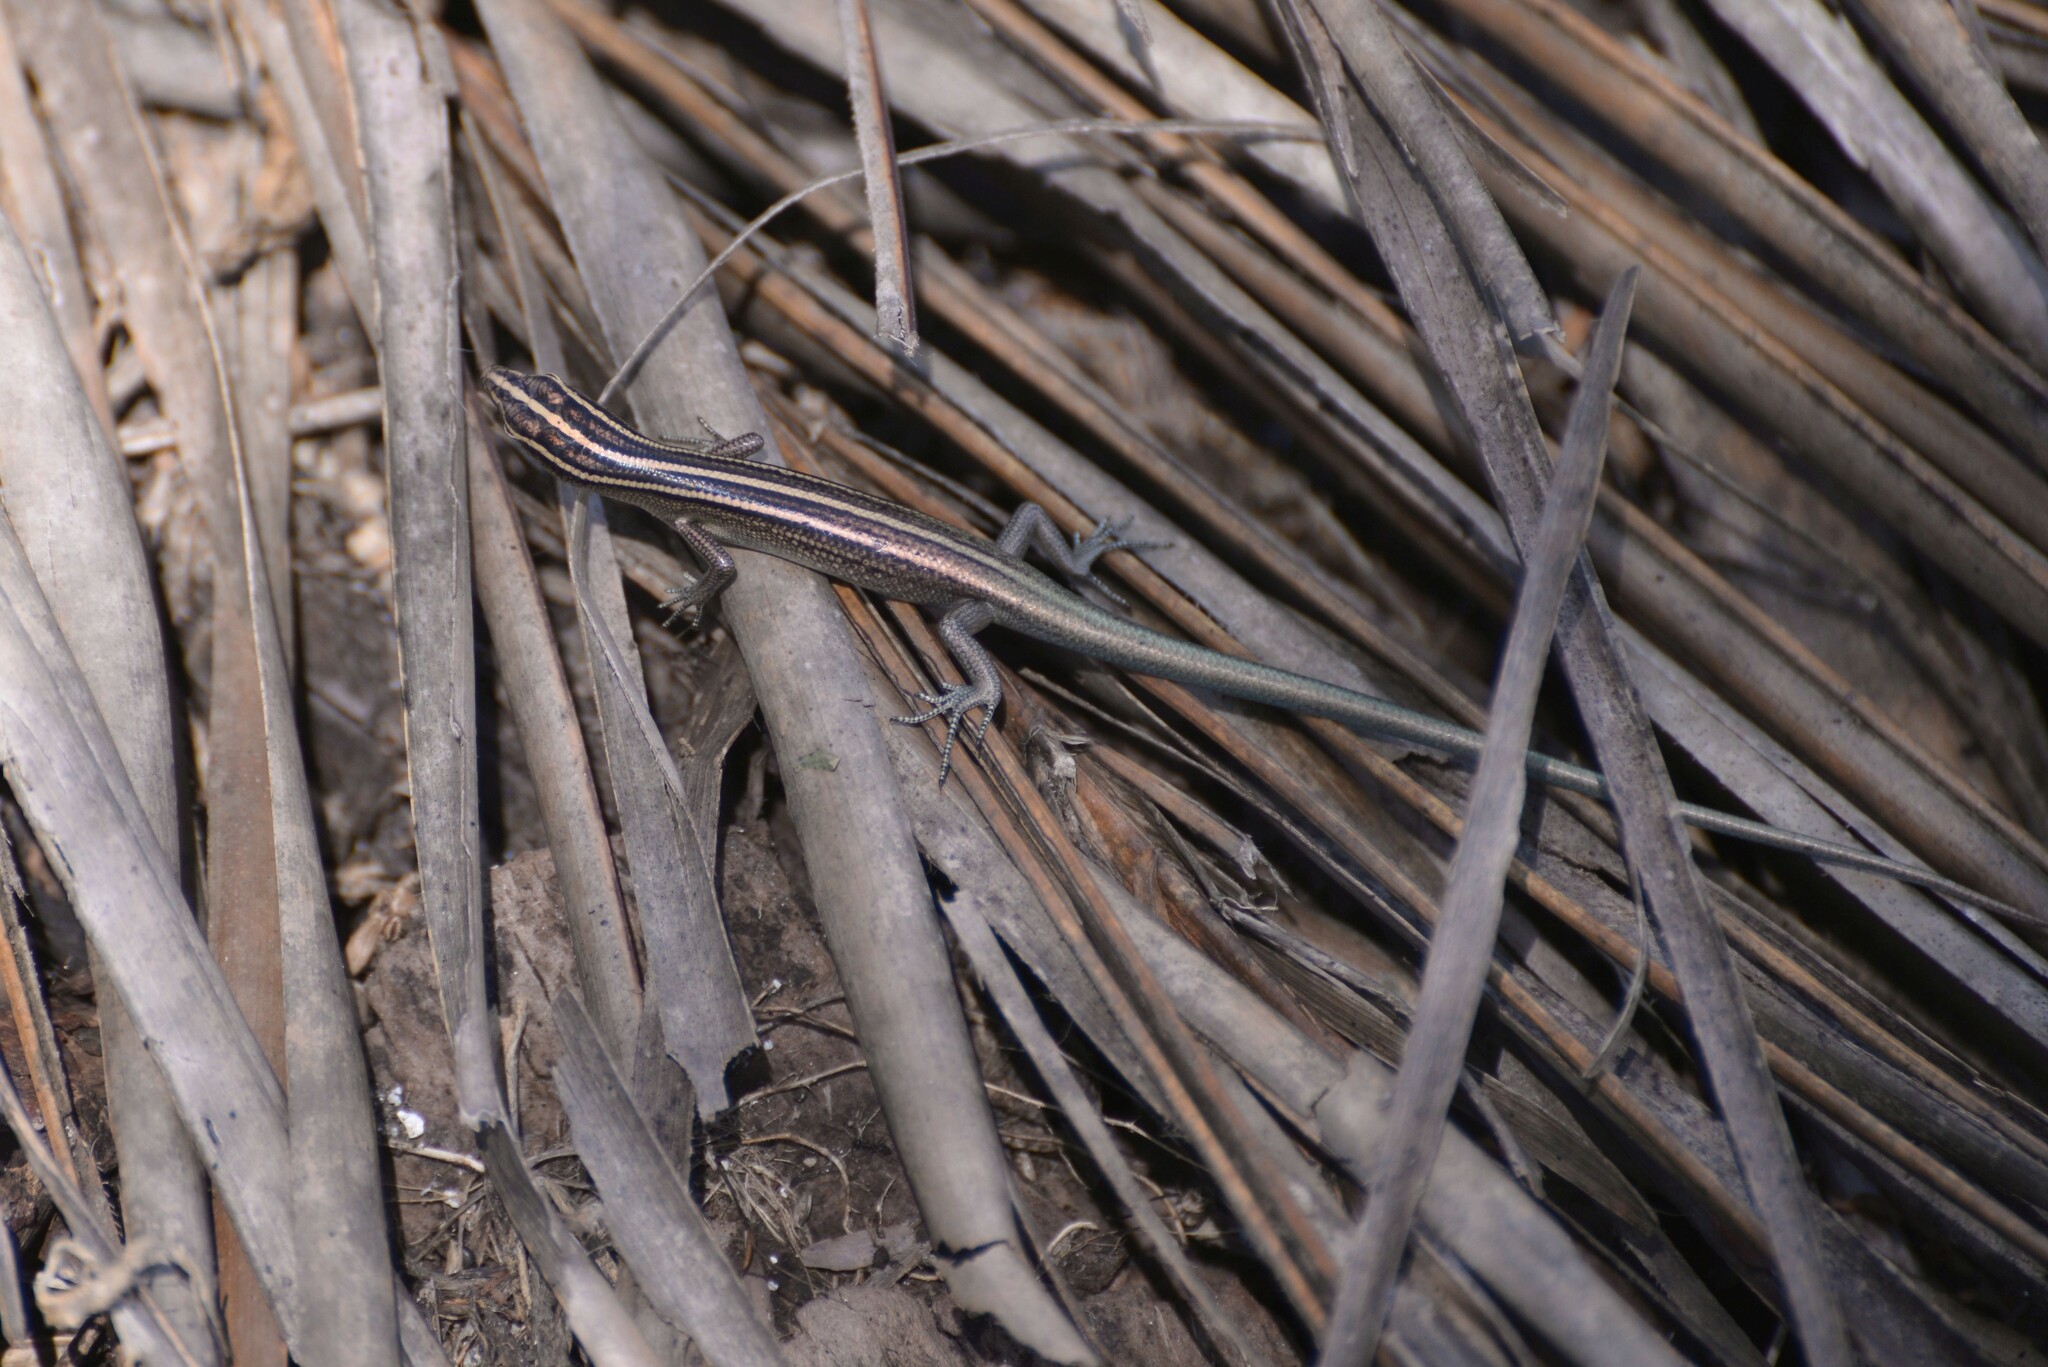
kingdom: Animalia
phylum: Chordata
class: Squamata
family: Scincidae
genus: Emoia
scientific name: Emoia cyanura
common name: Copper-tailed skink
